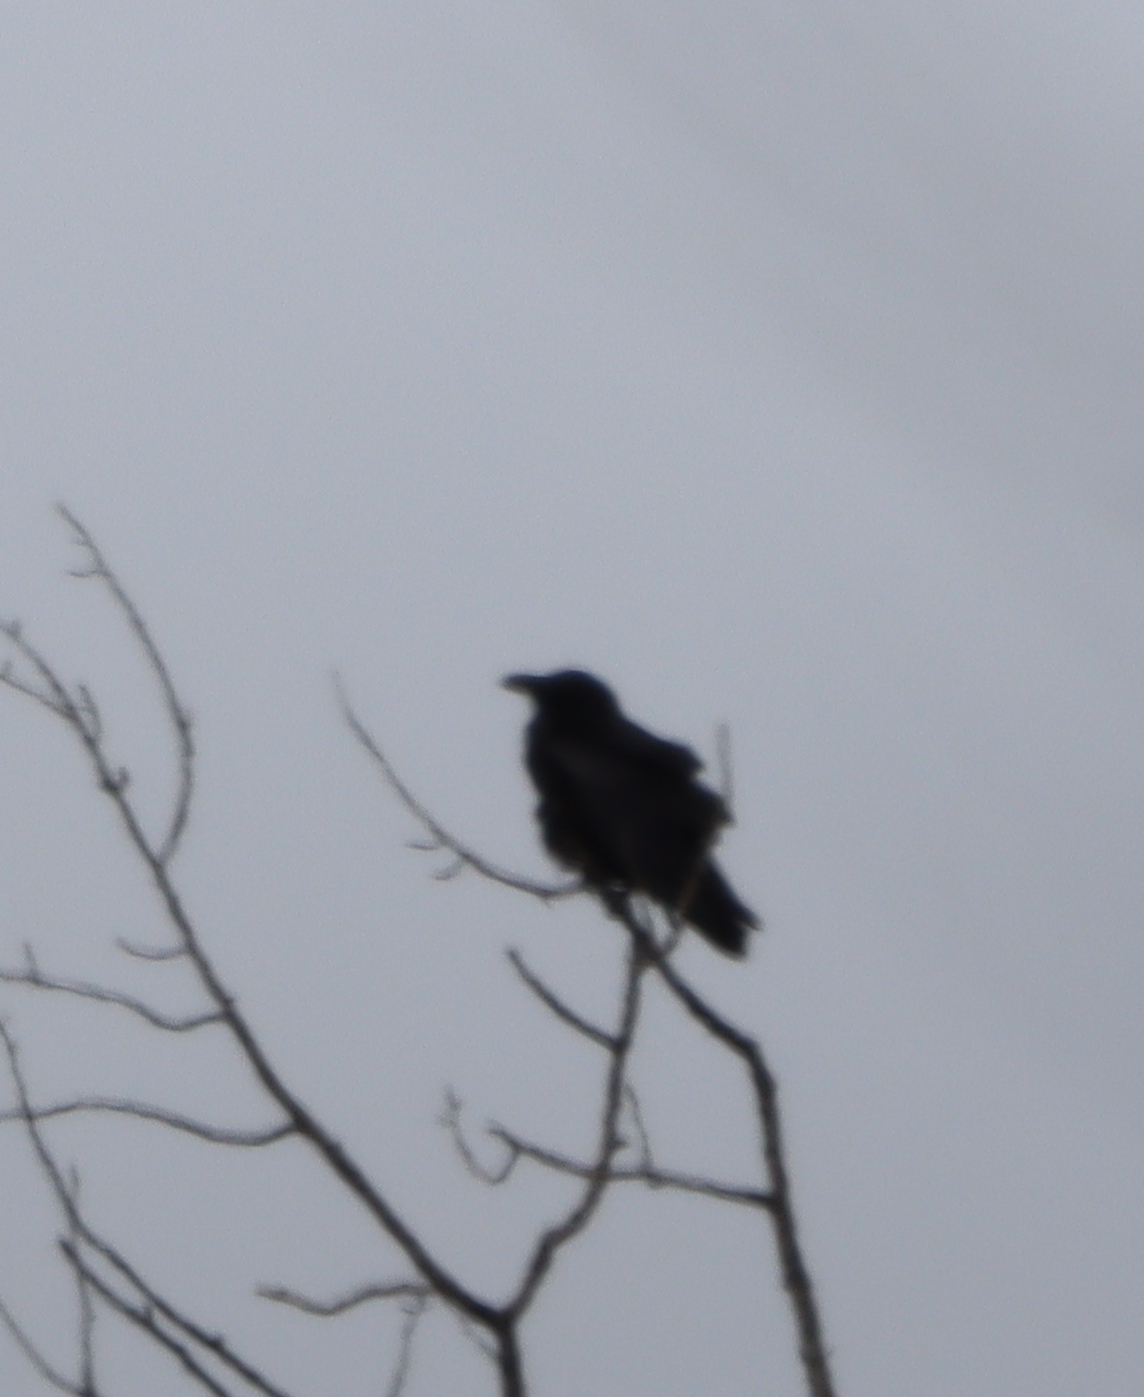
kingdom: Animalia
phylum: Chordata
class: Aves
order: Passeriformes
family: Corvidae
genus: Corvus
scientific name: Corvus corax
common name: Common raven
